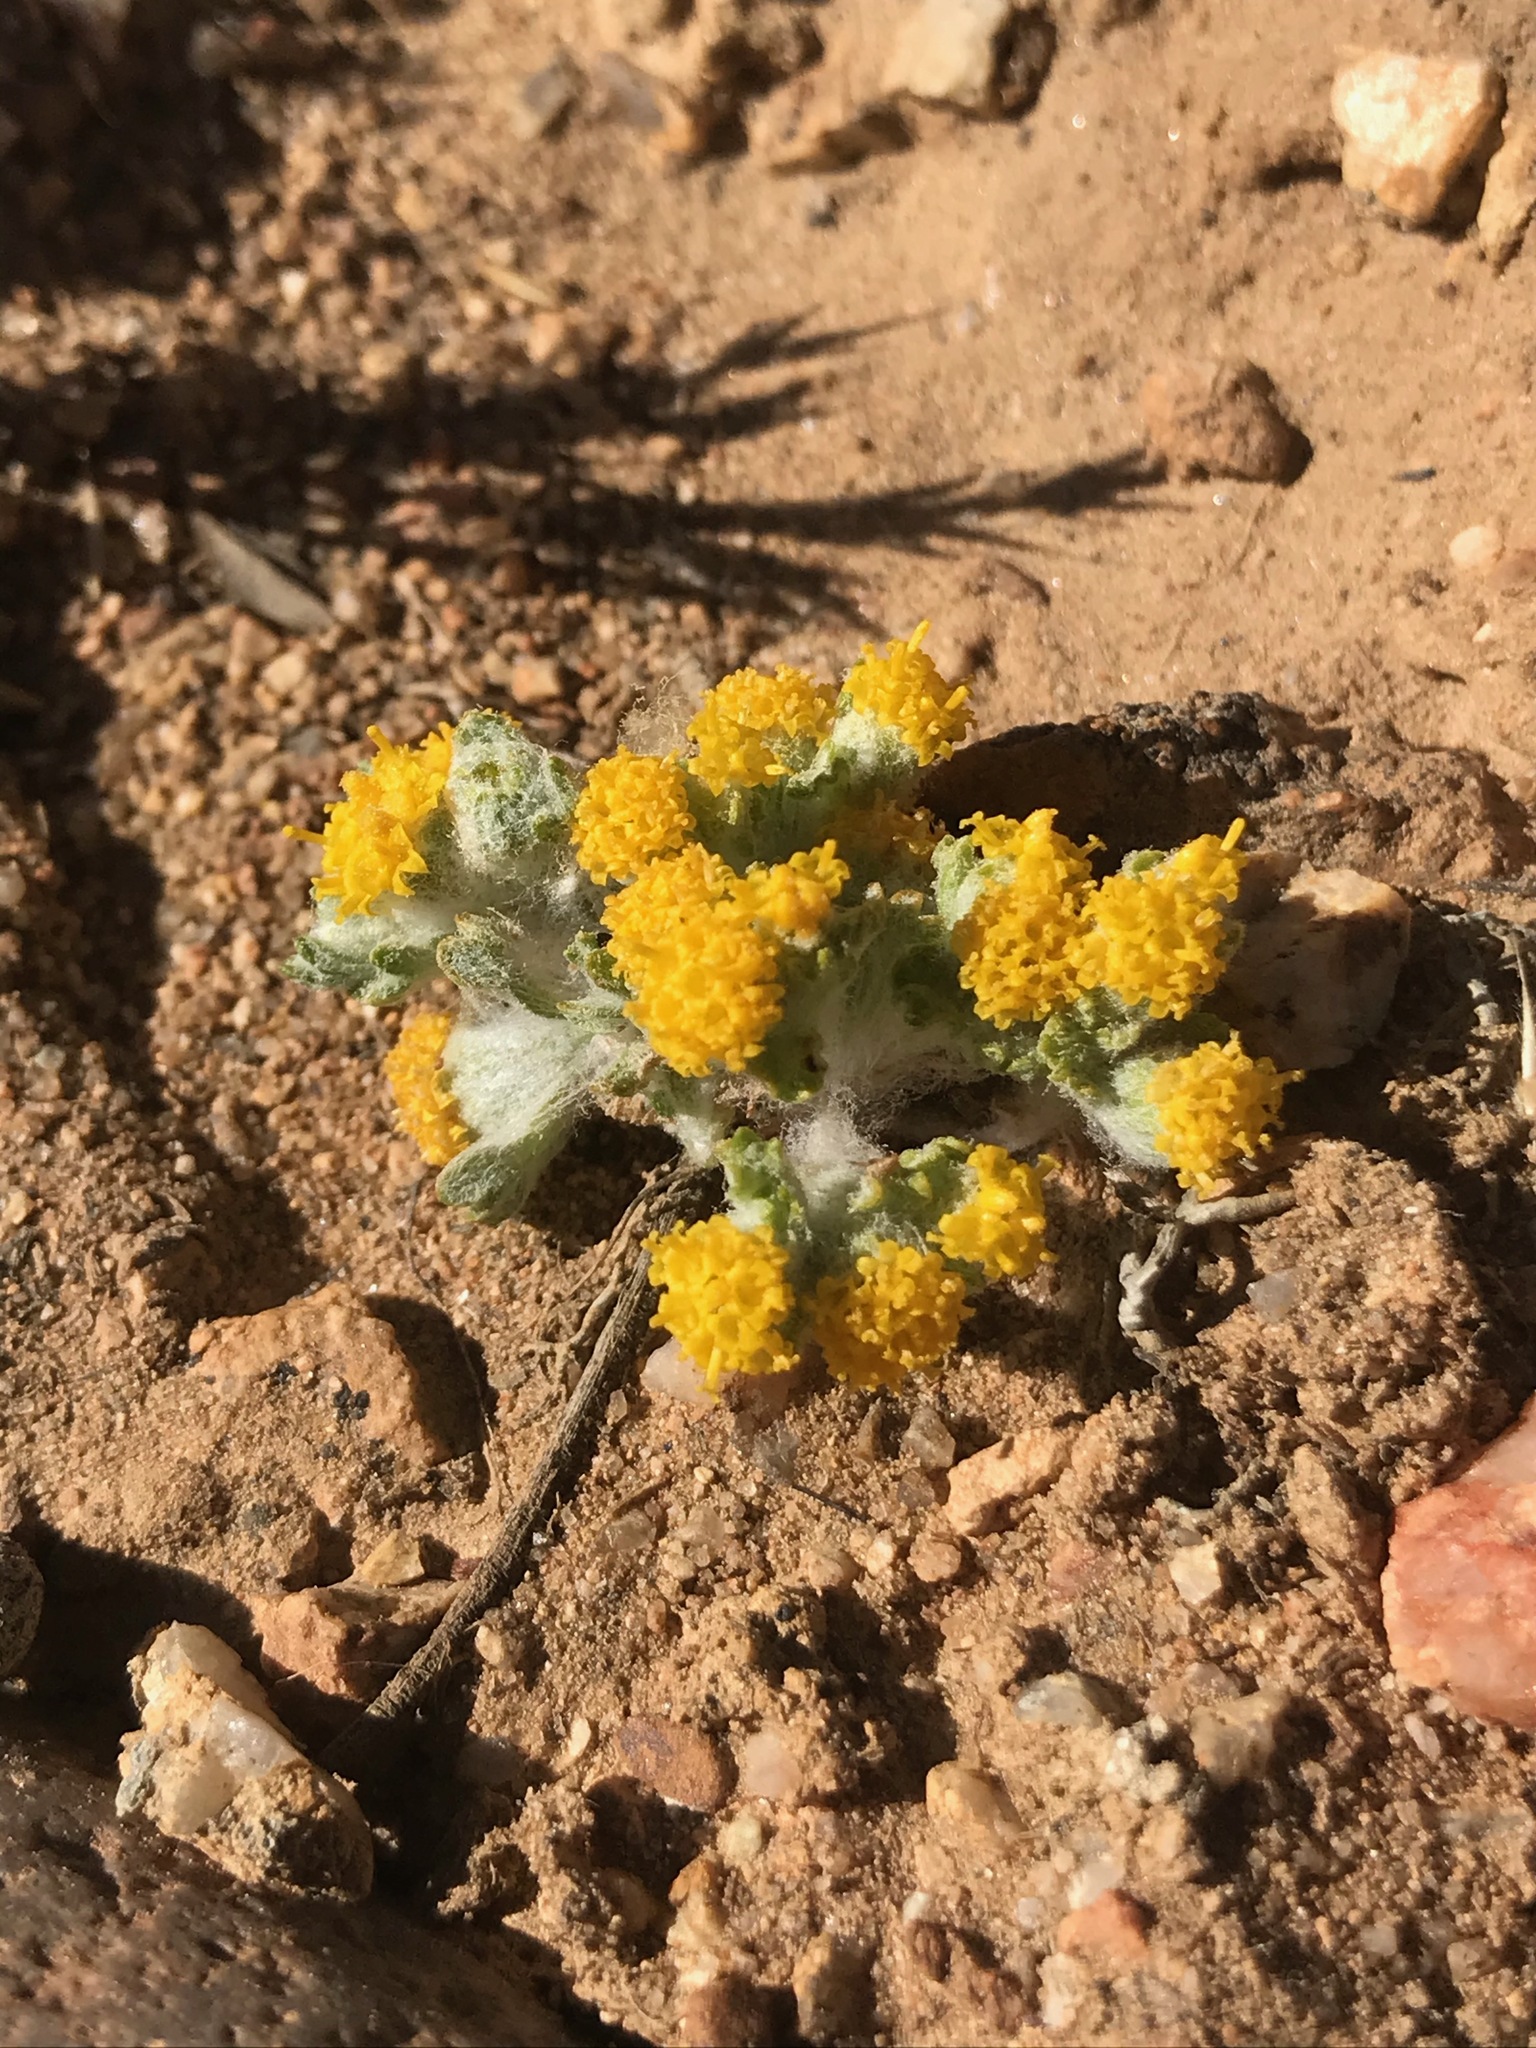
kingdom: Plantae
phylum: Tracheophyta
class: Magnoliopsida
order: Asterales
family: Asteraceae
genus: Eriophyllum
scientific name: Eriophyllum pringlei
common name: Pringle's woolly-sunflower
